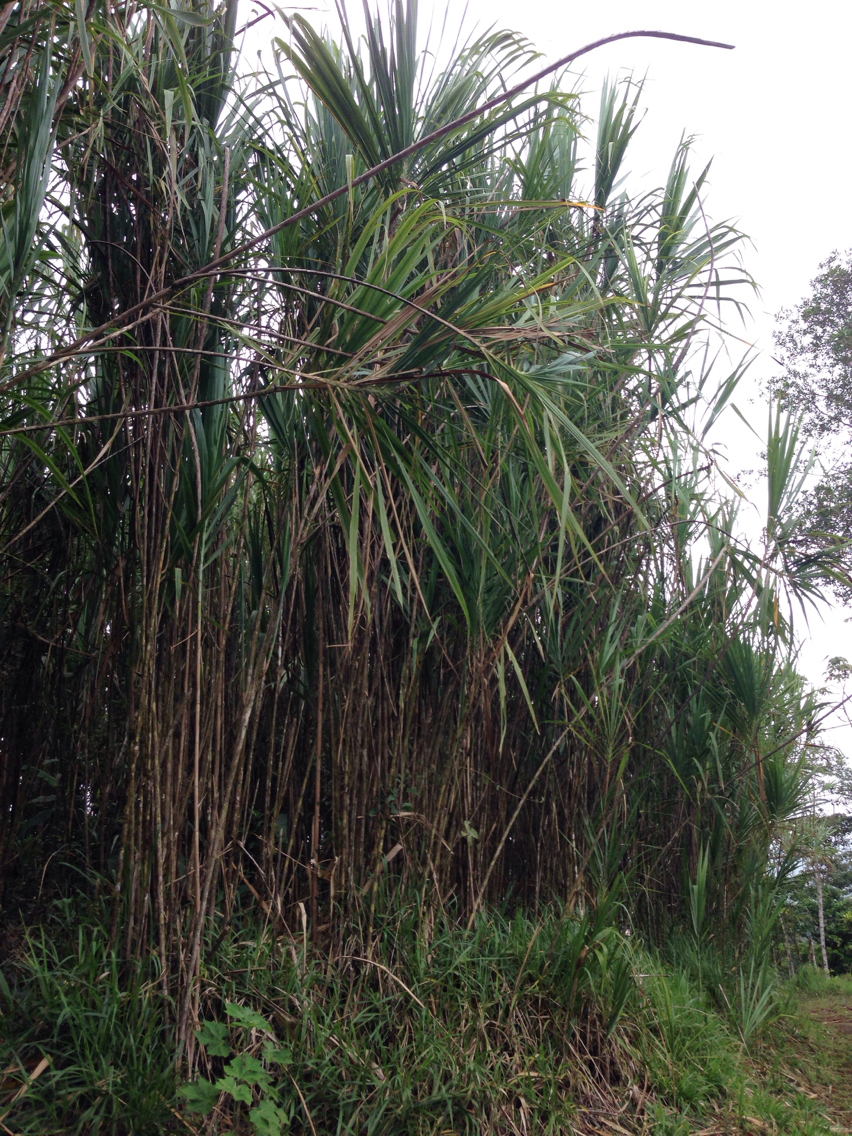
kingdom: Plantae
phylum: Tracheophyta
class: Liliopsida
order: Poales
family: Poaceae
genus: Gynerium
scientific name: Gynerium sagittatum
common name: Wild cane
